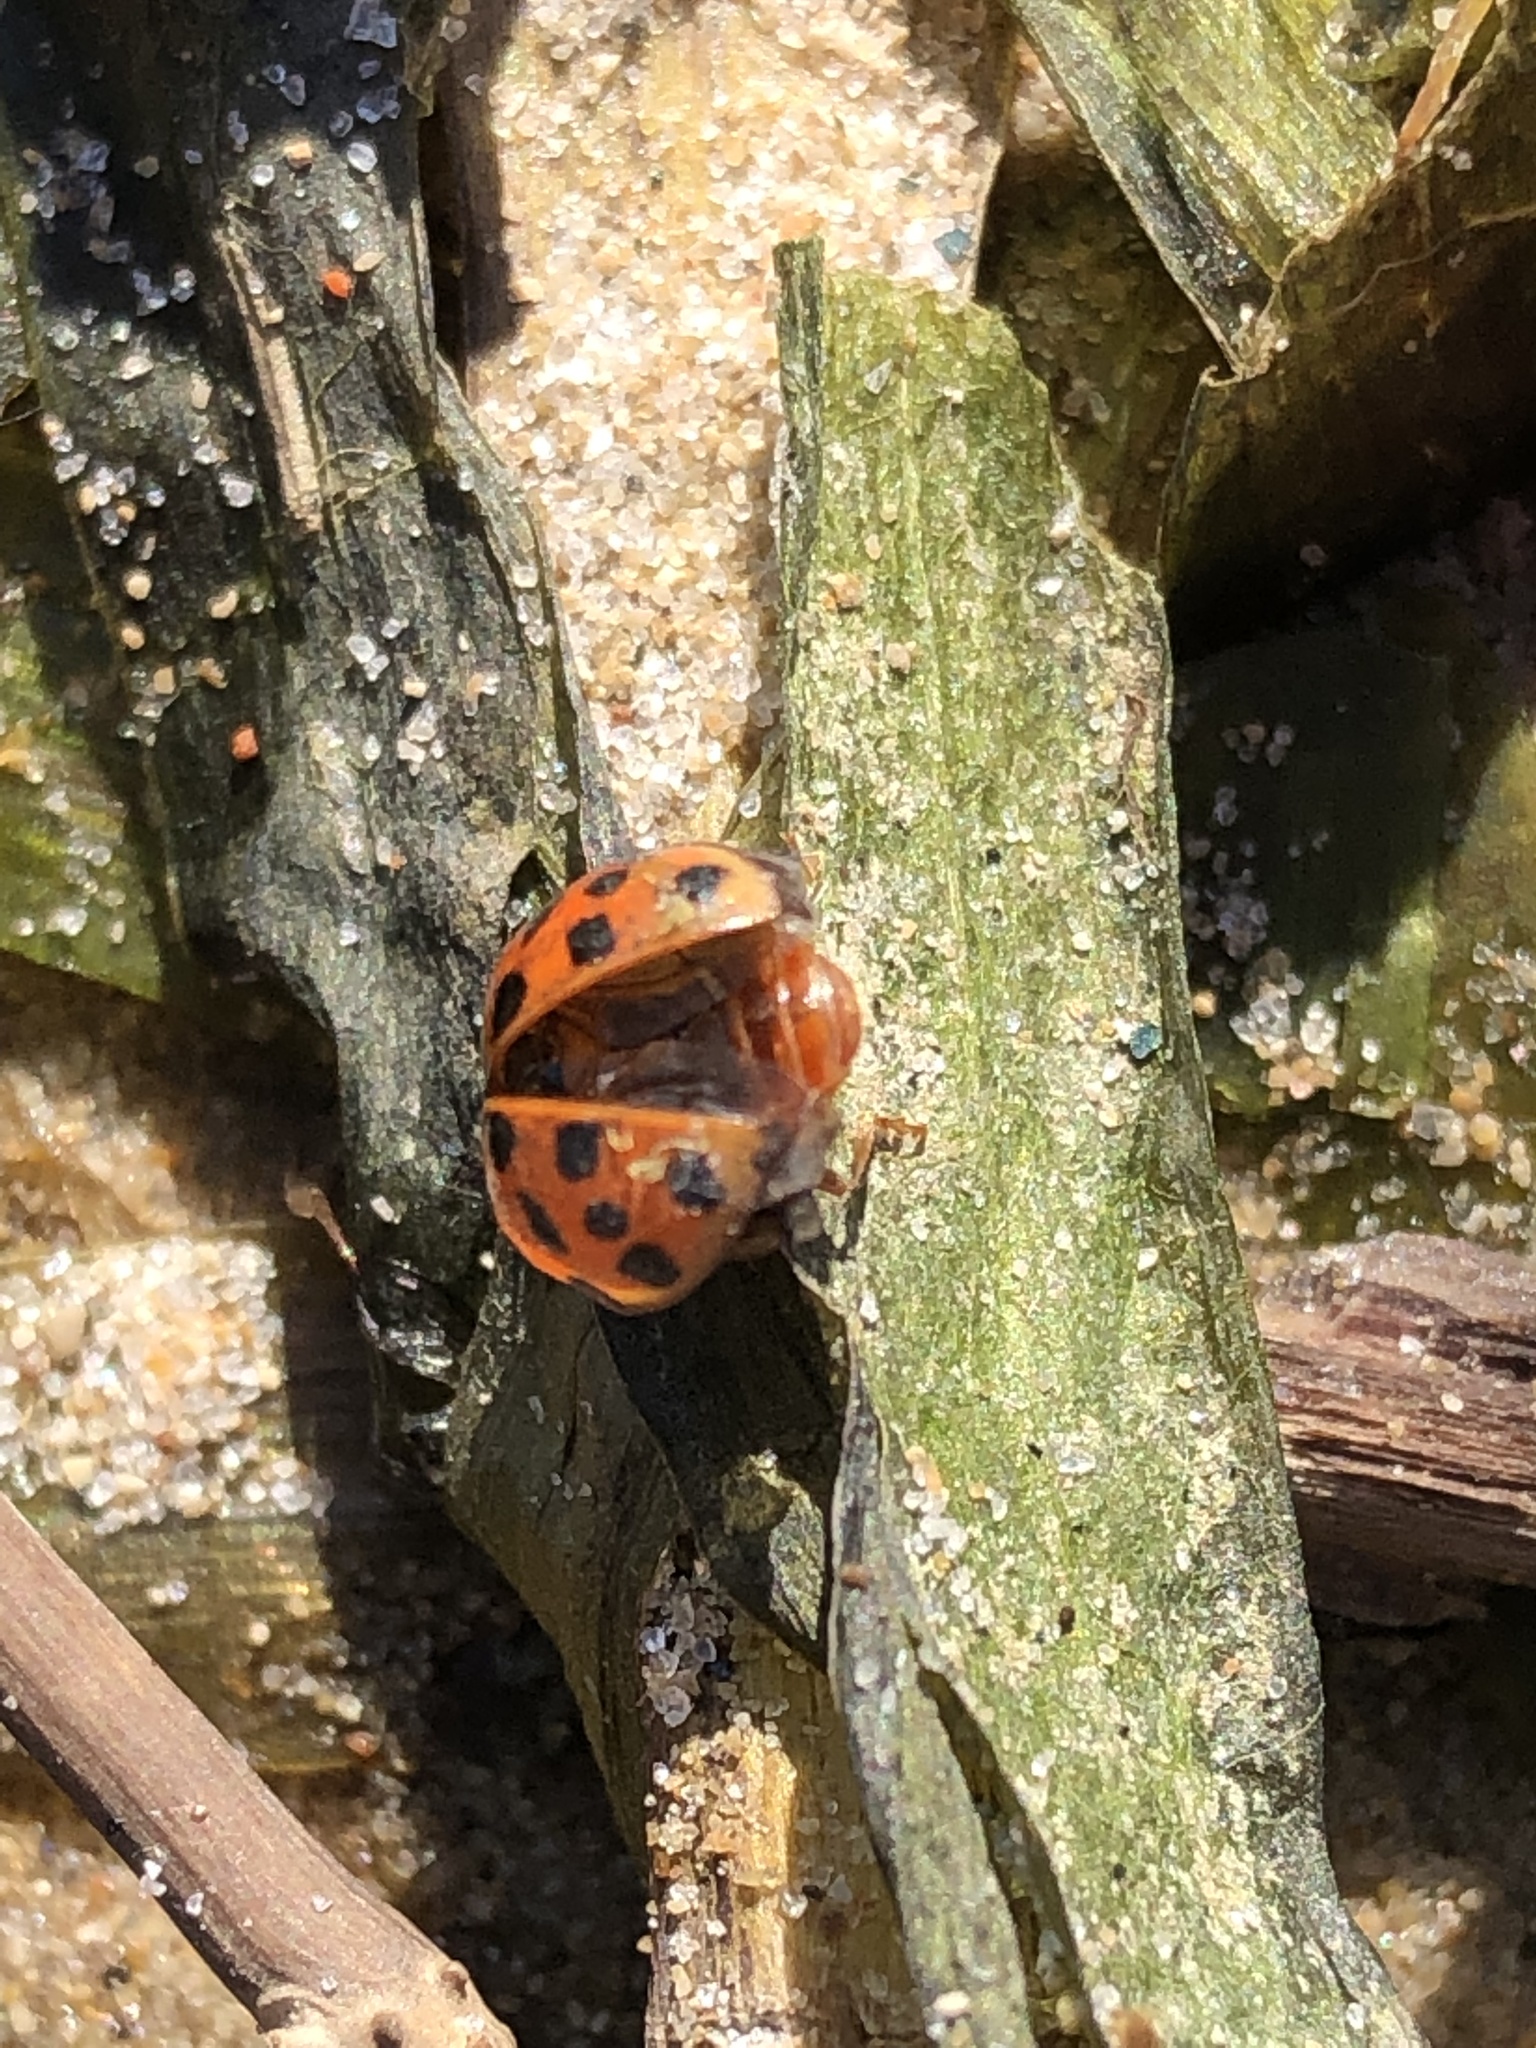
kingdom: Animalia
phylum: Arthropoda
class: Insecta
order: Coleoptera
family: Coccinellidae
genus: Harmonia
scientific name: Harmonia axyridis
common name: Harlequin ladybird
